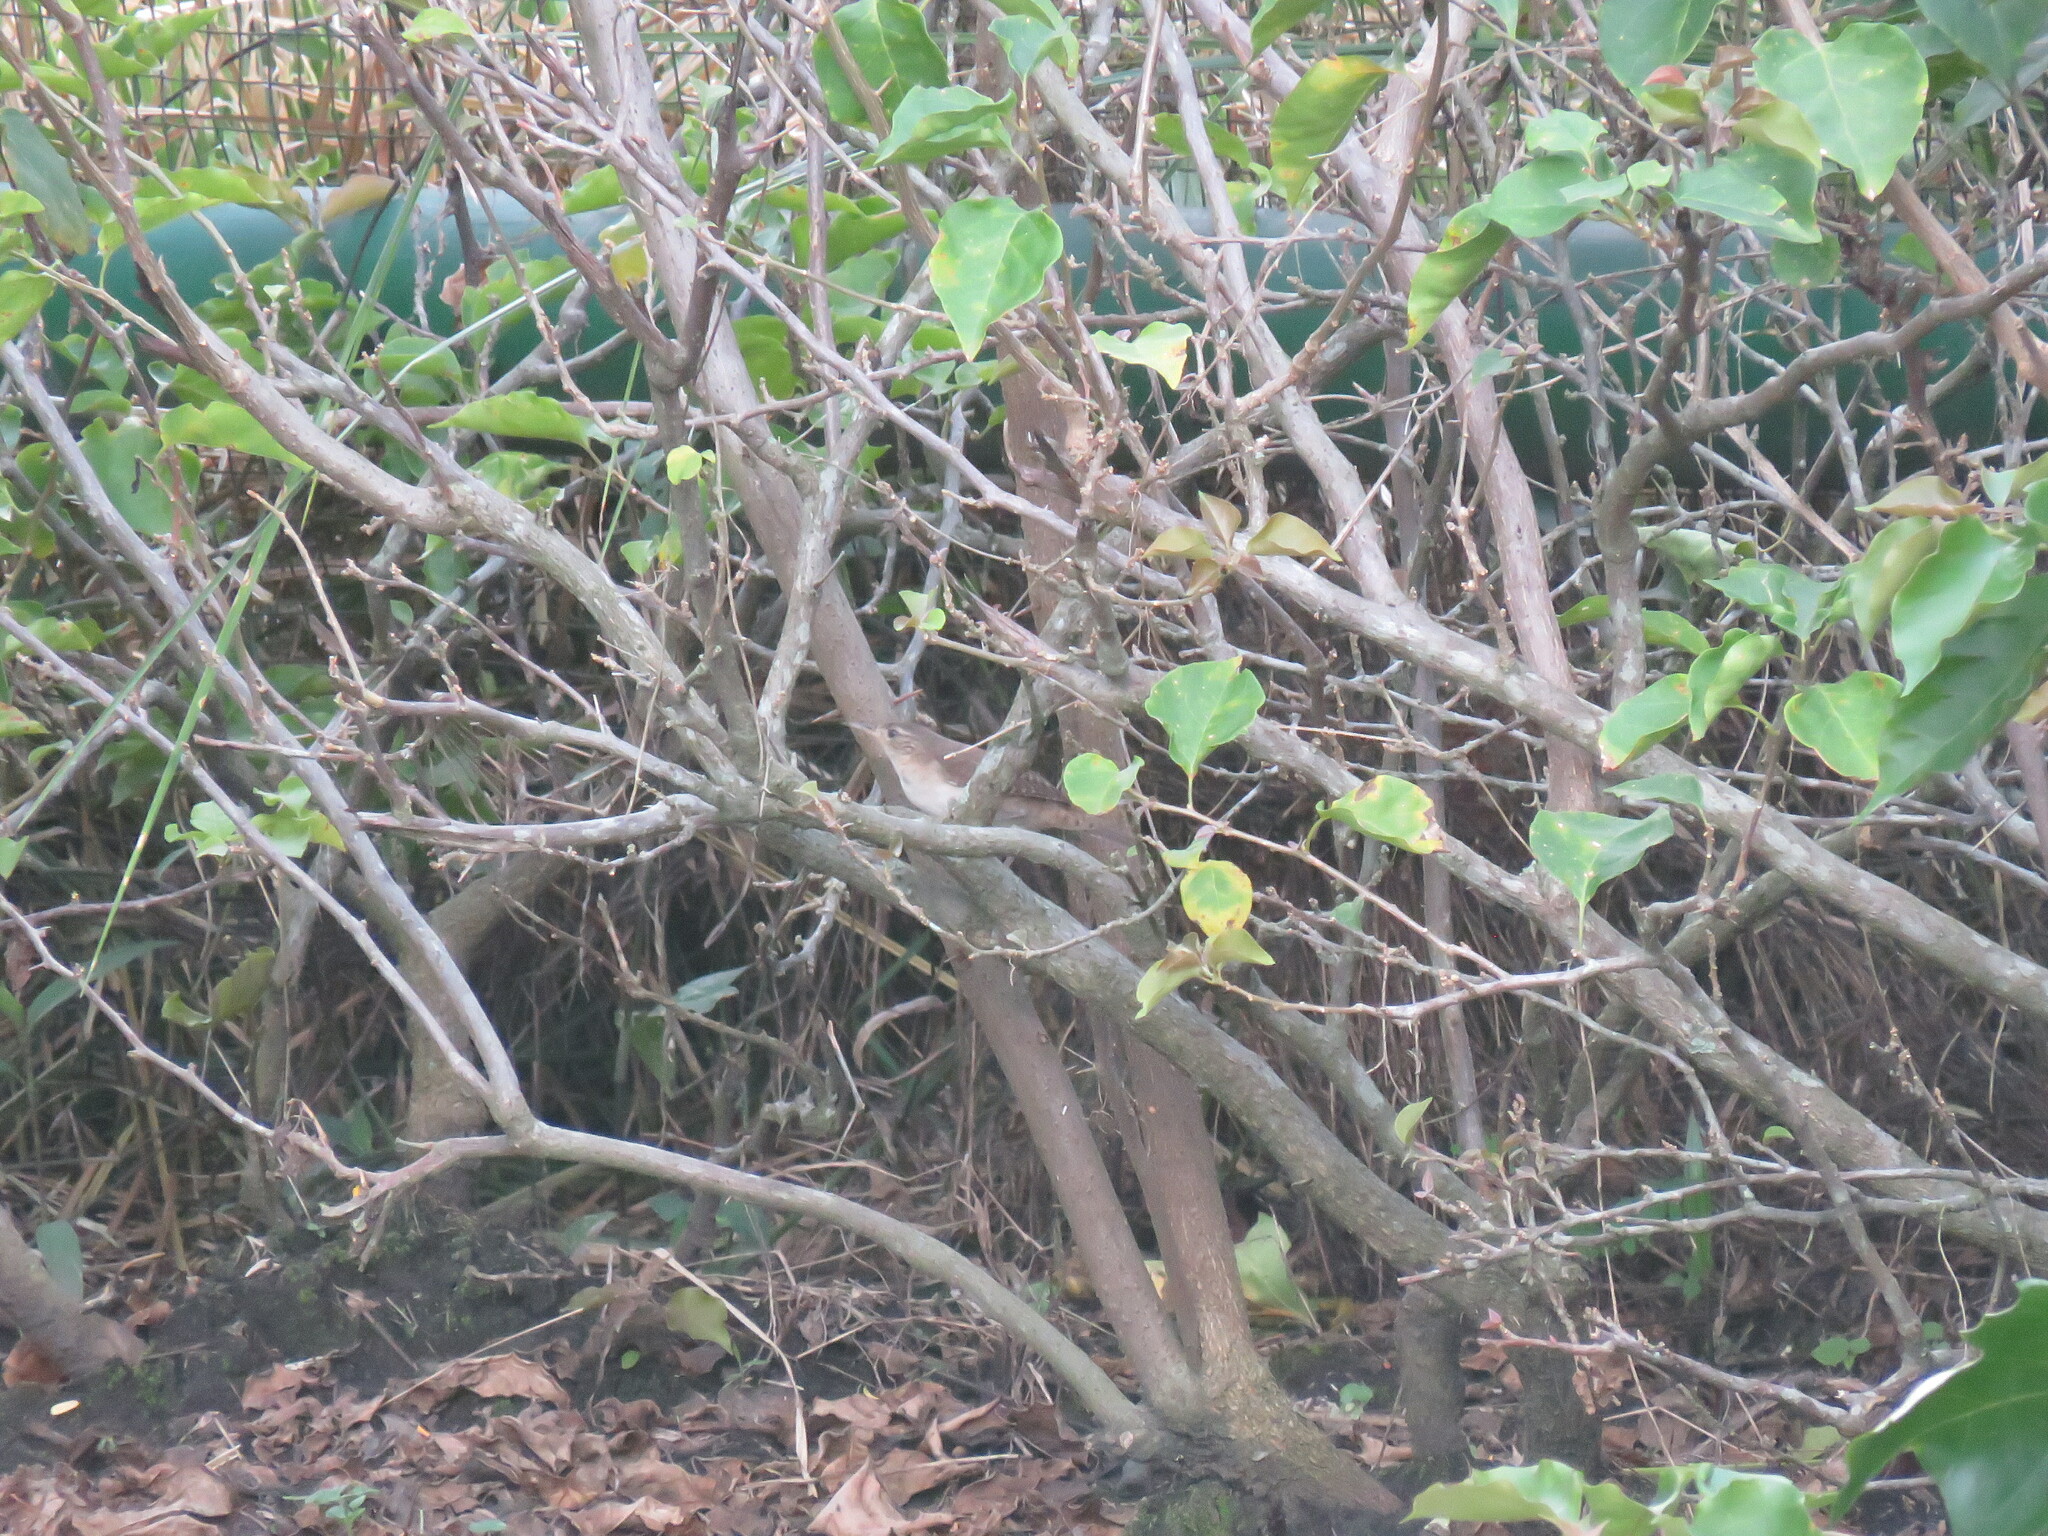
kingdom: Animalia
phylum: Chordata
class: Aves
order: Passeriformes
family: Troglodytidae
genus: Troglodytes
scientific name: Troglodytes aedon
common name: House wren
